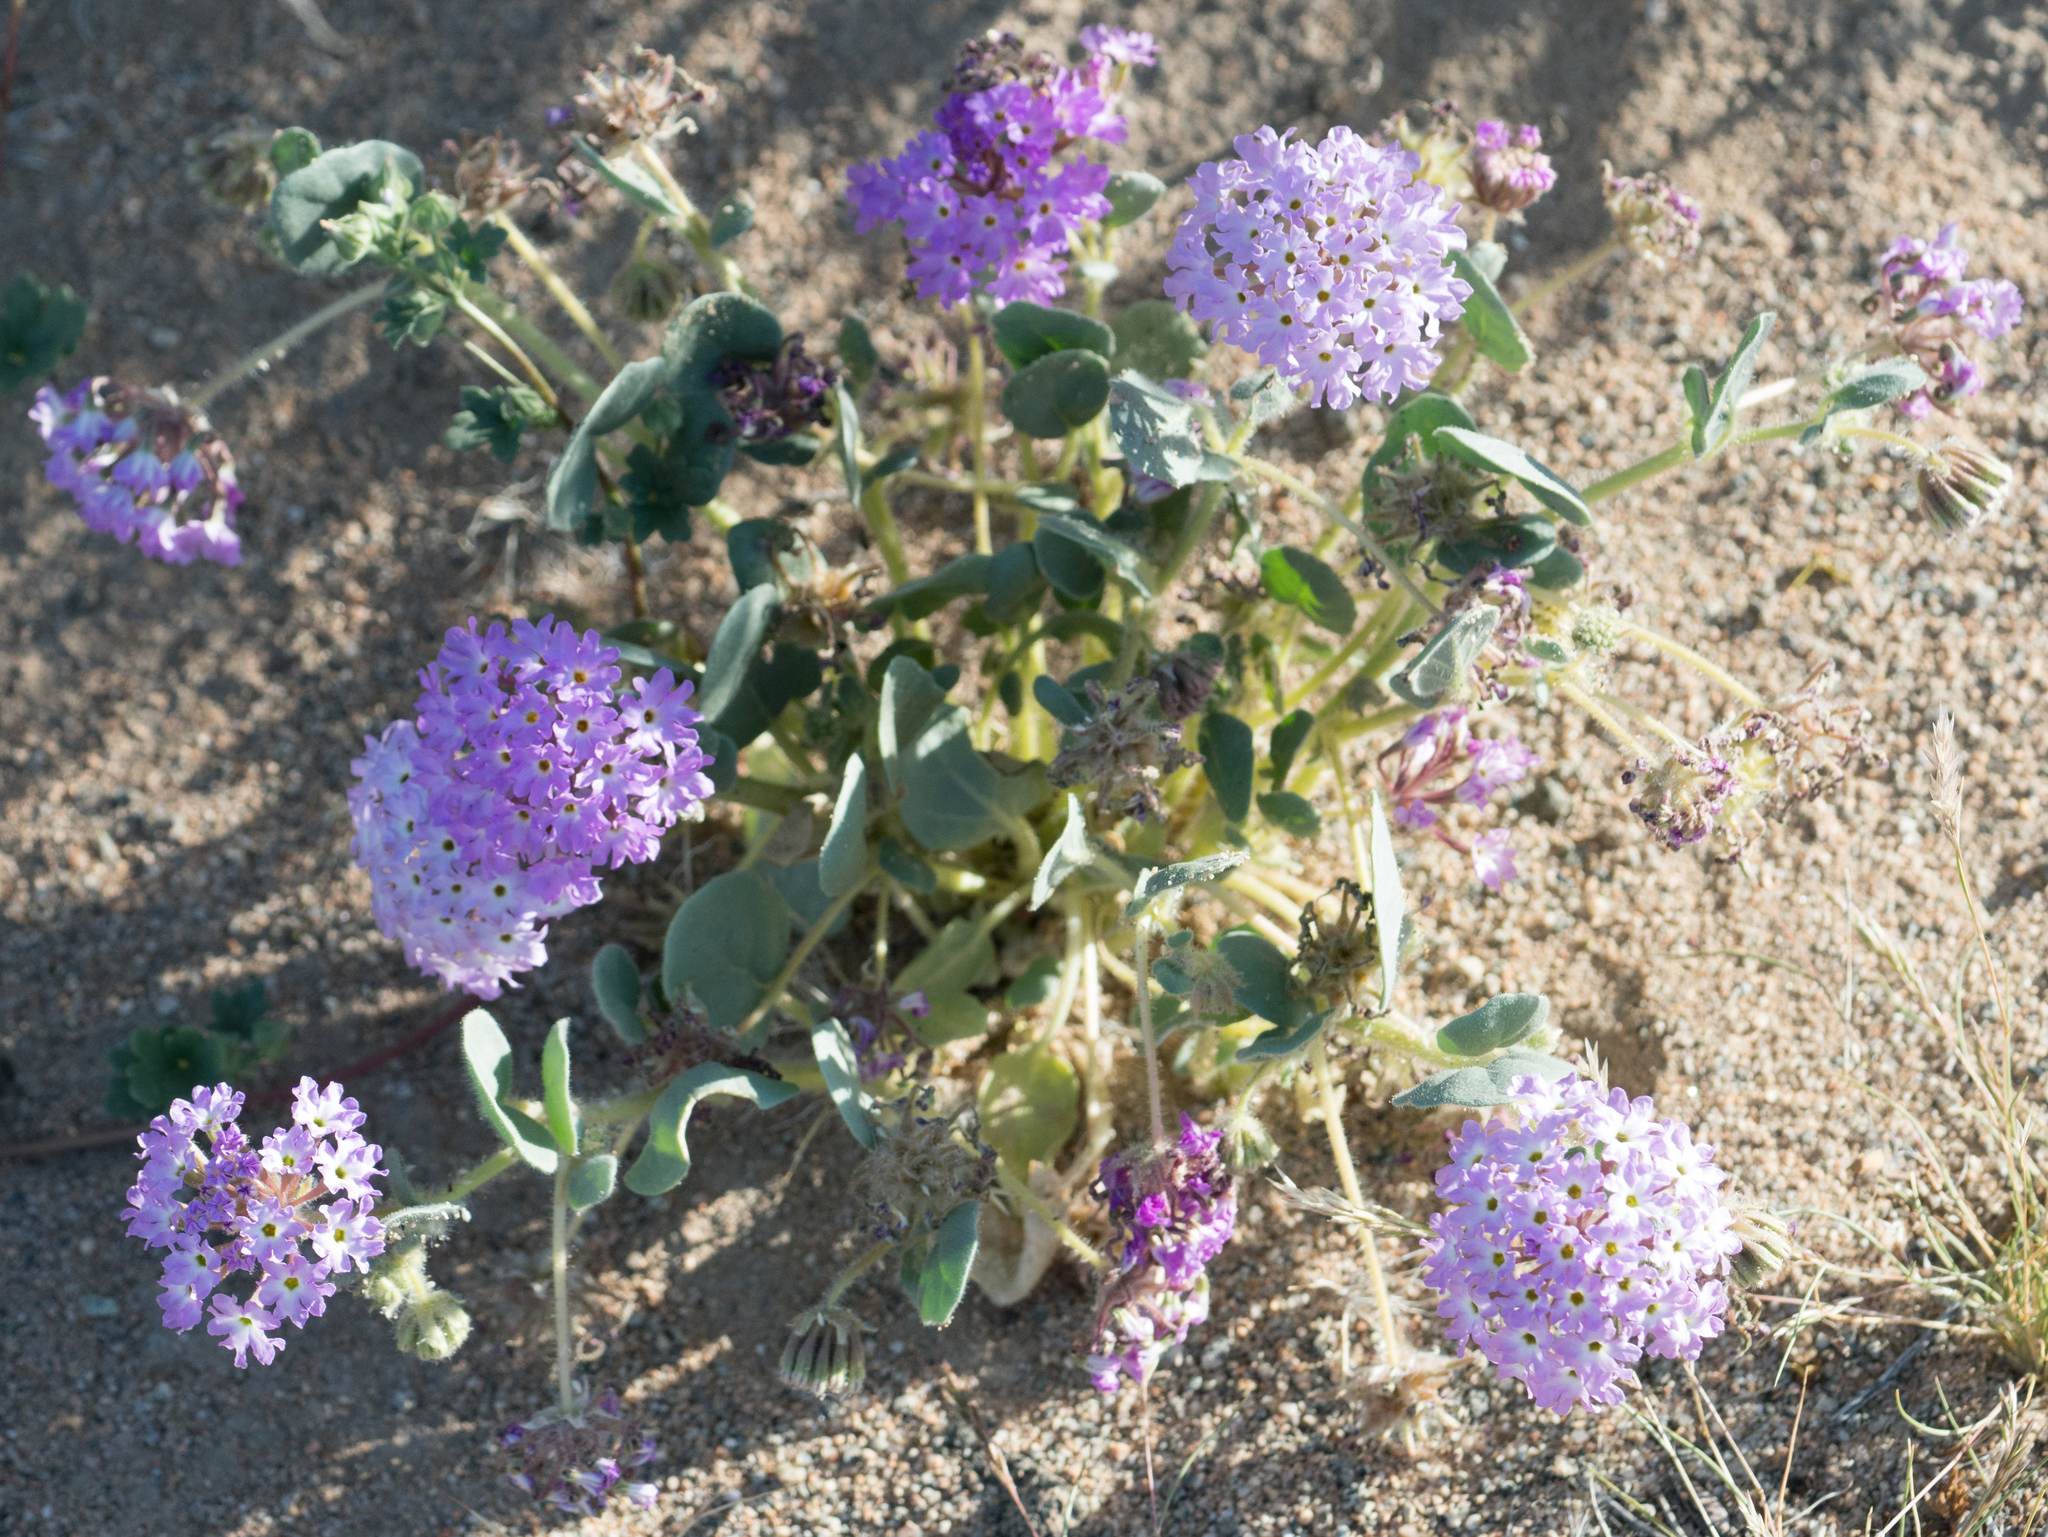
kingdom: Plantae
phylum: Tracheophyta
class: Magnoliopsida
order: Caryophyllales
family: Nyctaginaceae
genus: Abronia
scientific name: Abronia villosa
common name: Desert sand-verbena
